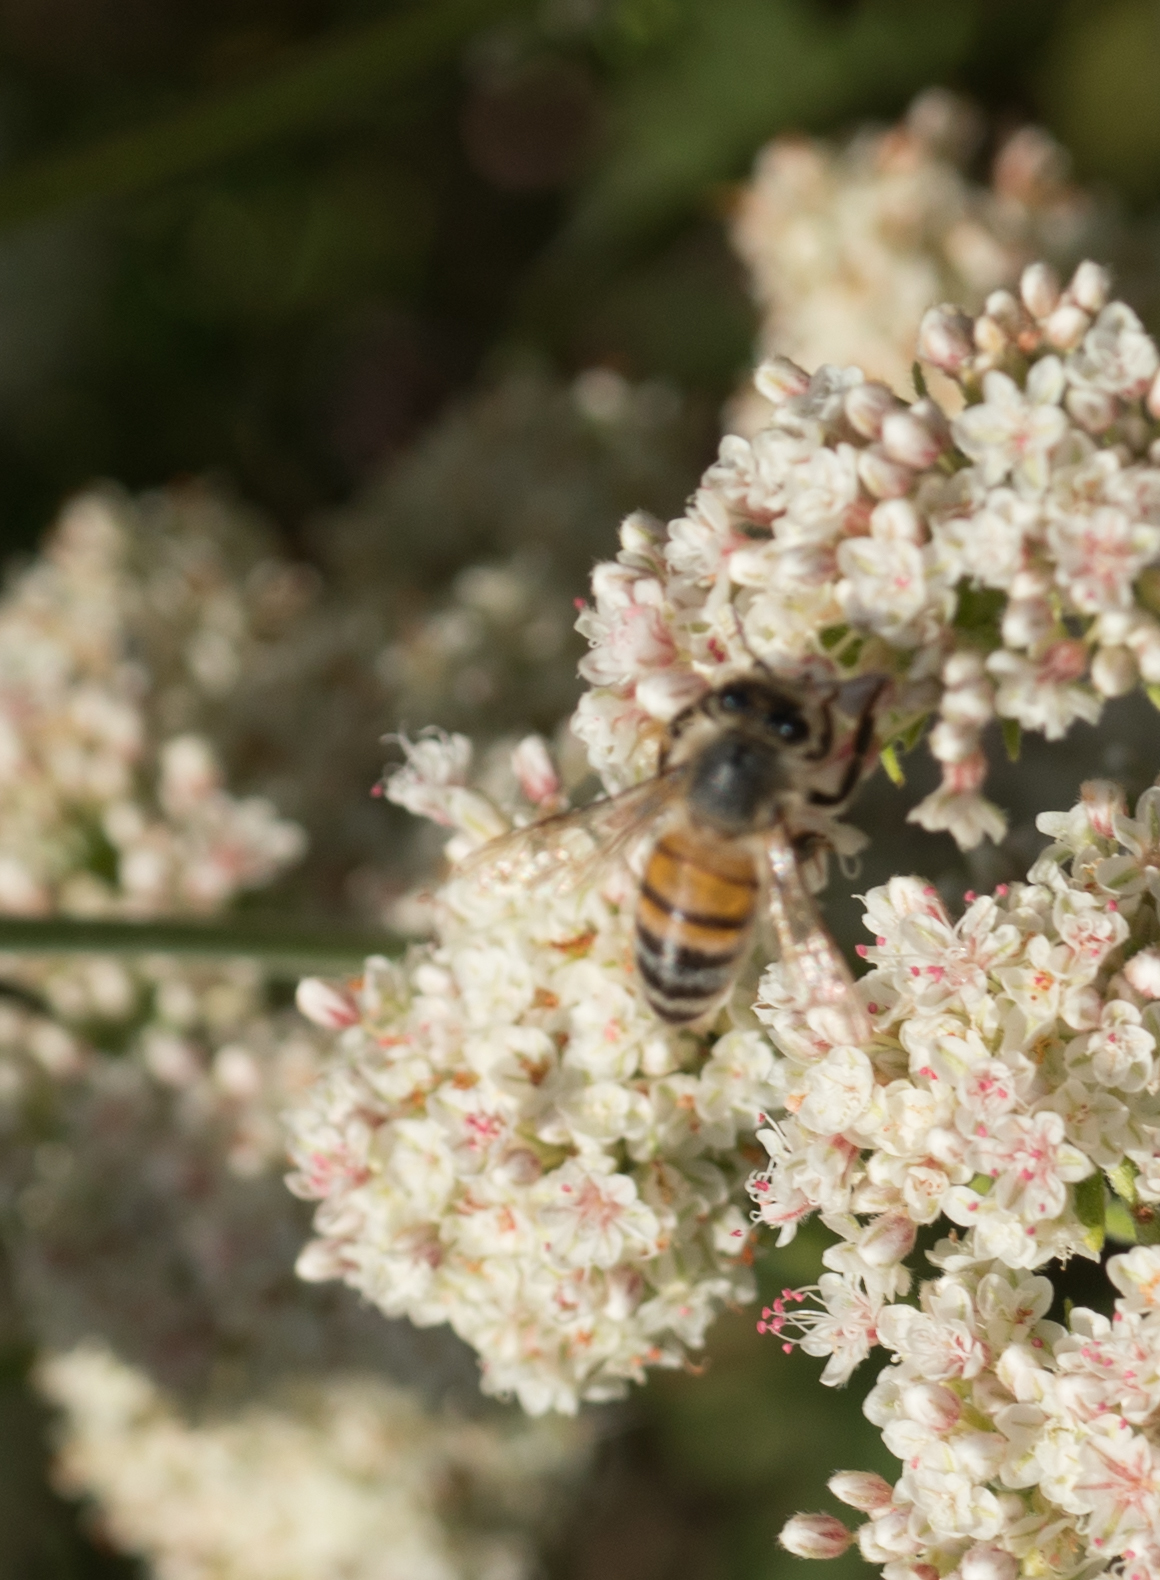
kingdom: Animalia
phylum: Arthropoda
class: Insecta
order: Hymenoptera
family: Apidae
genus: Apis
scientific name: Apis mellifera
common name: Honey bee
